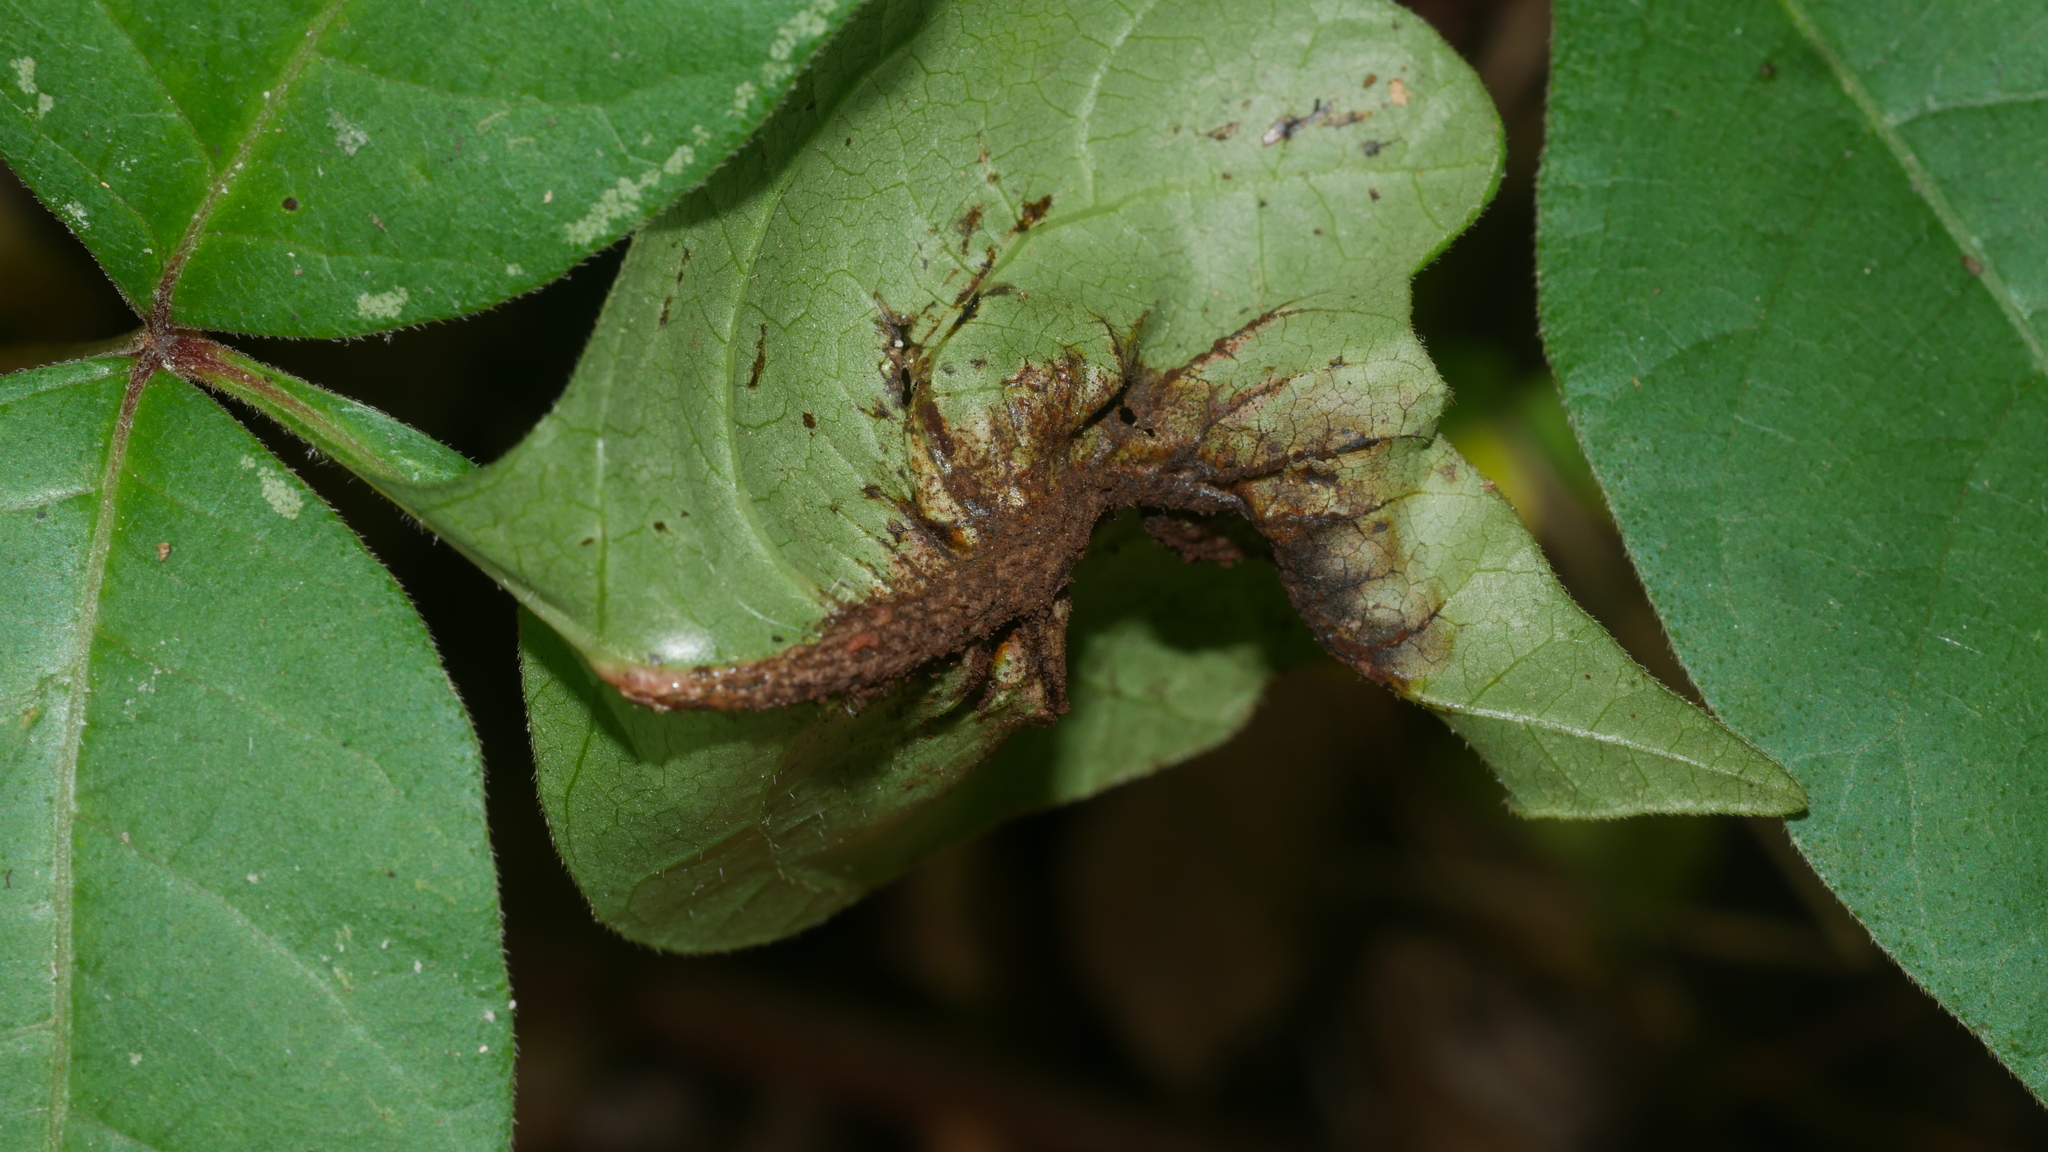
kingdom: Fungi
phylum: Basidiomycota
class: Pucciniomycetes
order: Pucciniales
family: Pileolariaceae
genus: Pileolaria
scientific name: Pileolaria brevipes
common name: Poison ivy rust
